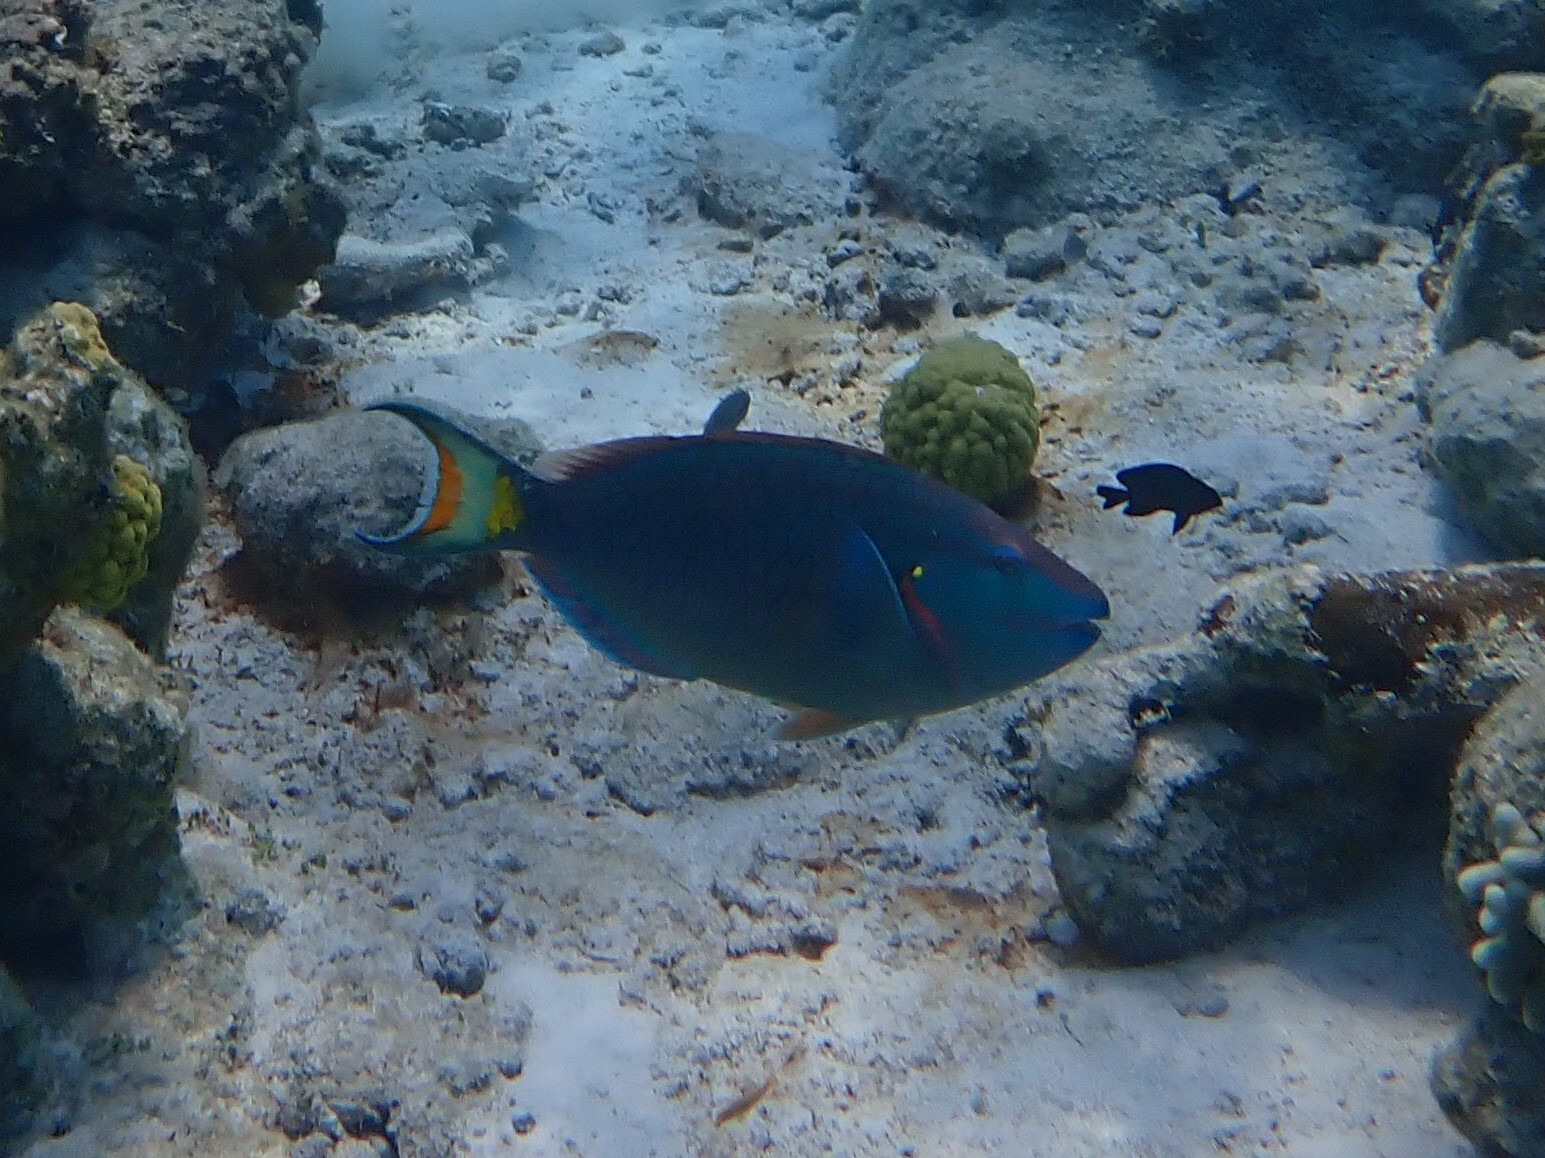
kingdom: Animalia
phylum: Chordata
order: Perciformes
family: Scaridae
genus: Sparisoma
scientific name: Sparisoma viride
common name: Stoplight parrotfish
